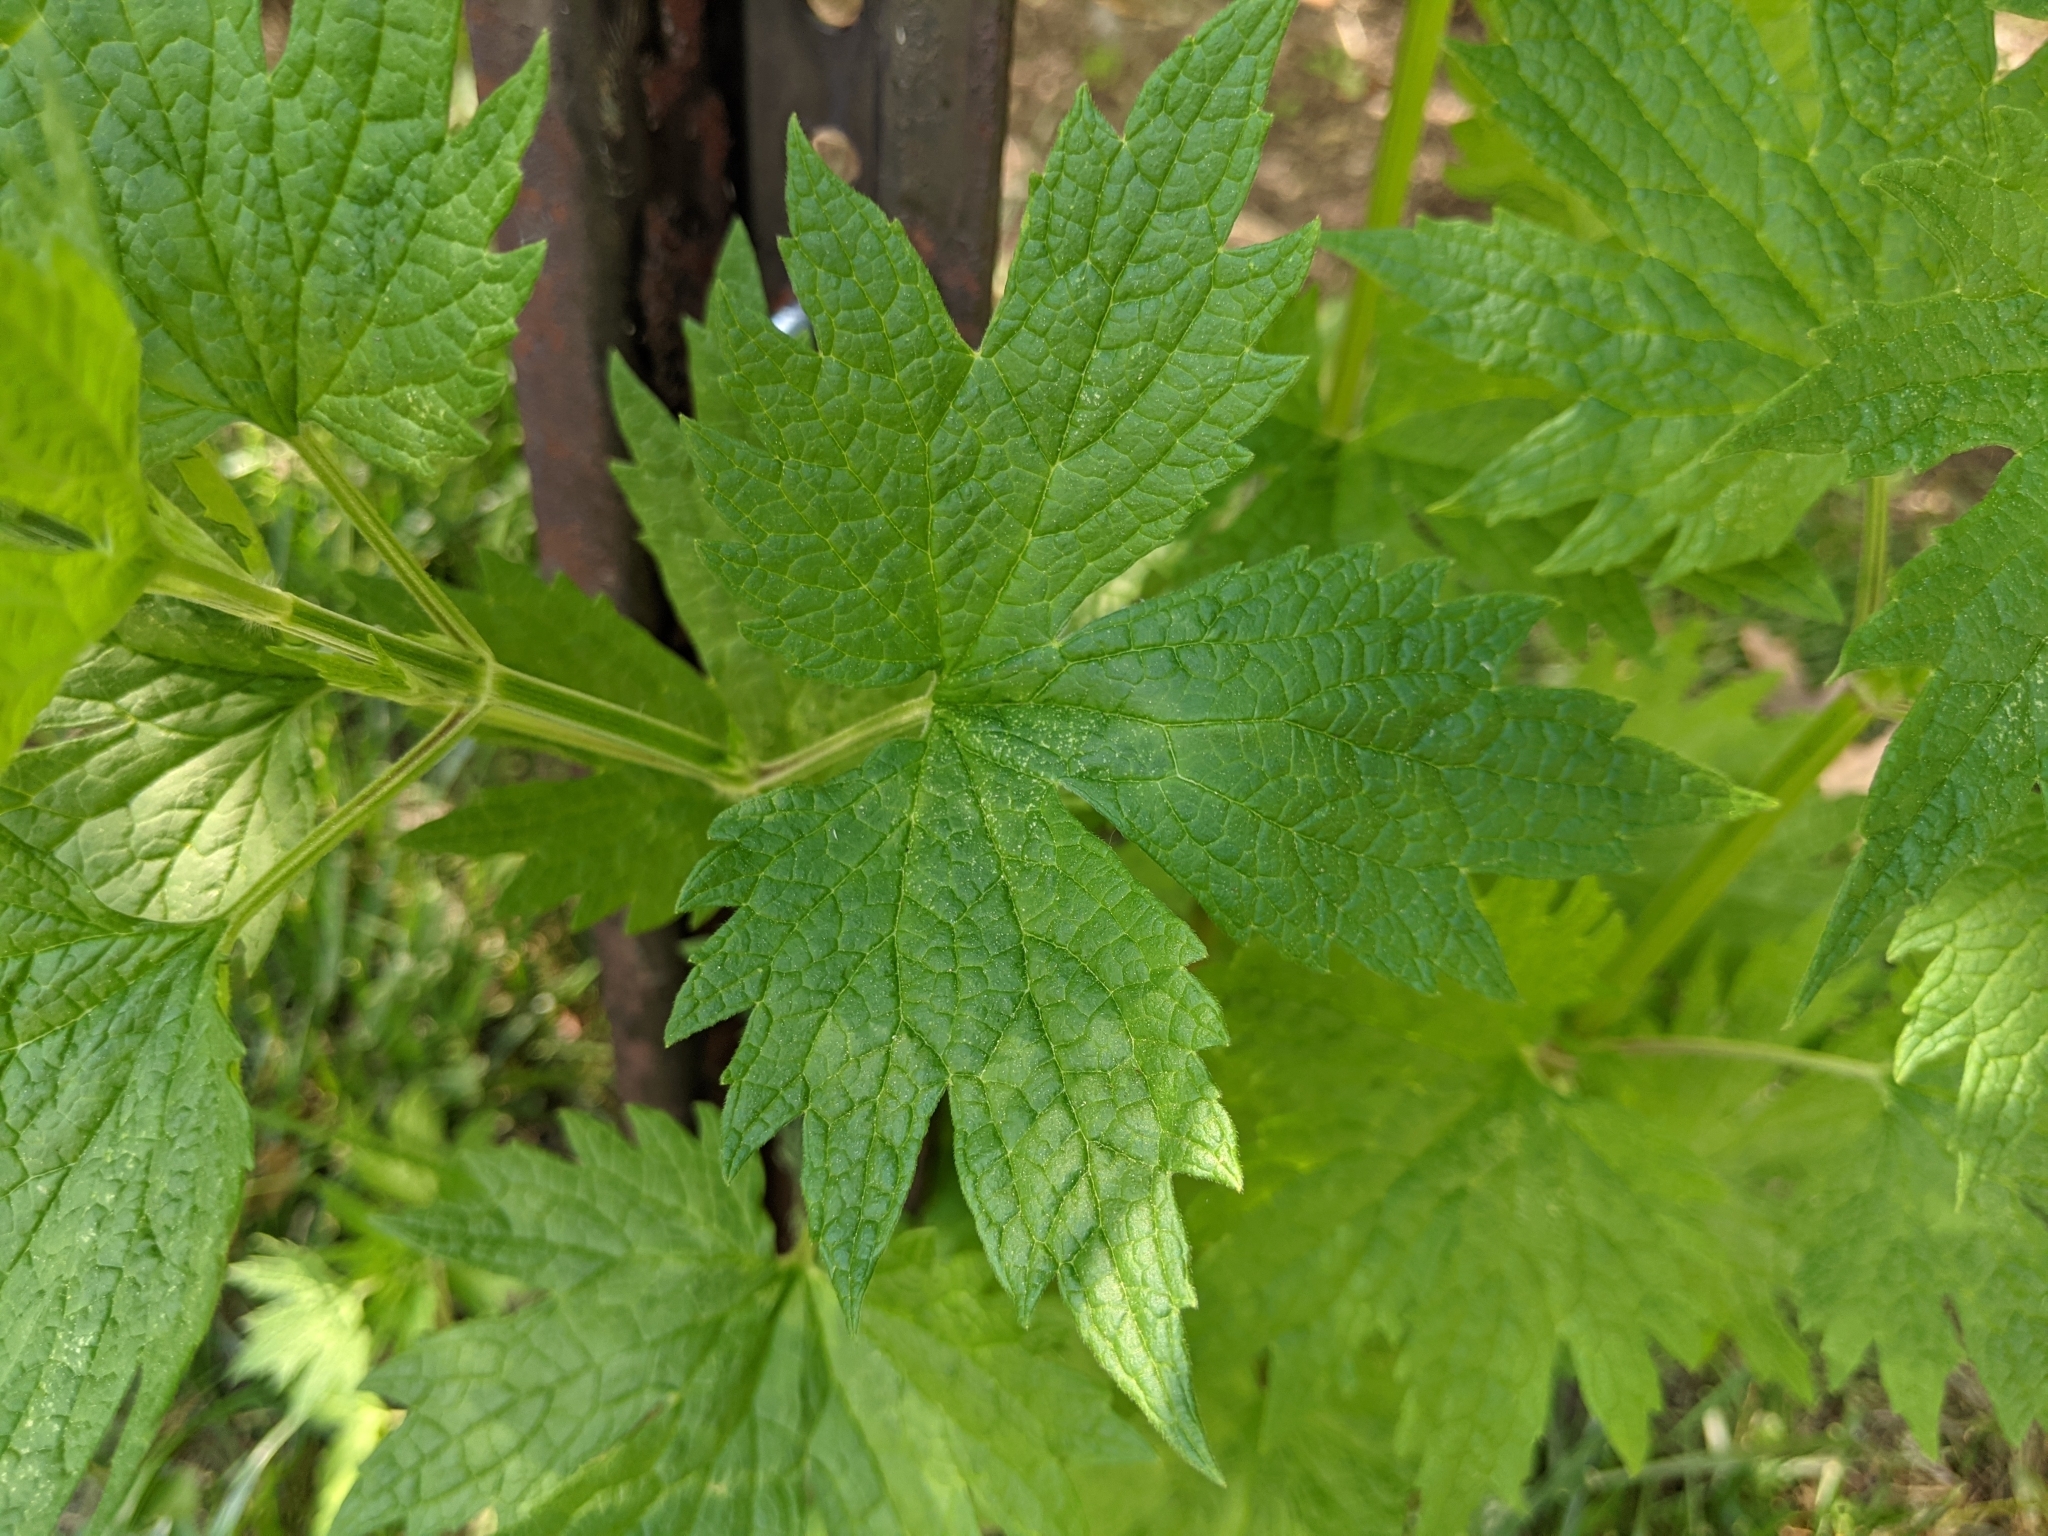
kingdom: Plantae
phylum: Tracheophyta
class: Magnoliopsida
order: Lamiales
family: Lamiaceae
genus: Leonurus
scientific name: Leonurus cardiaca
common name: Motherwort
